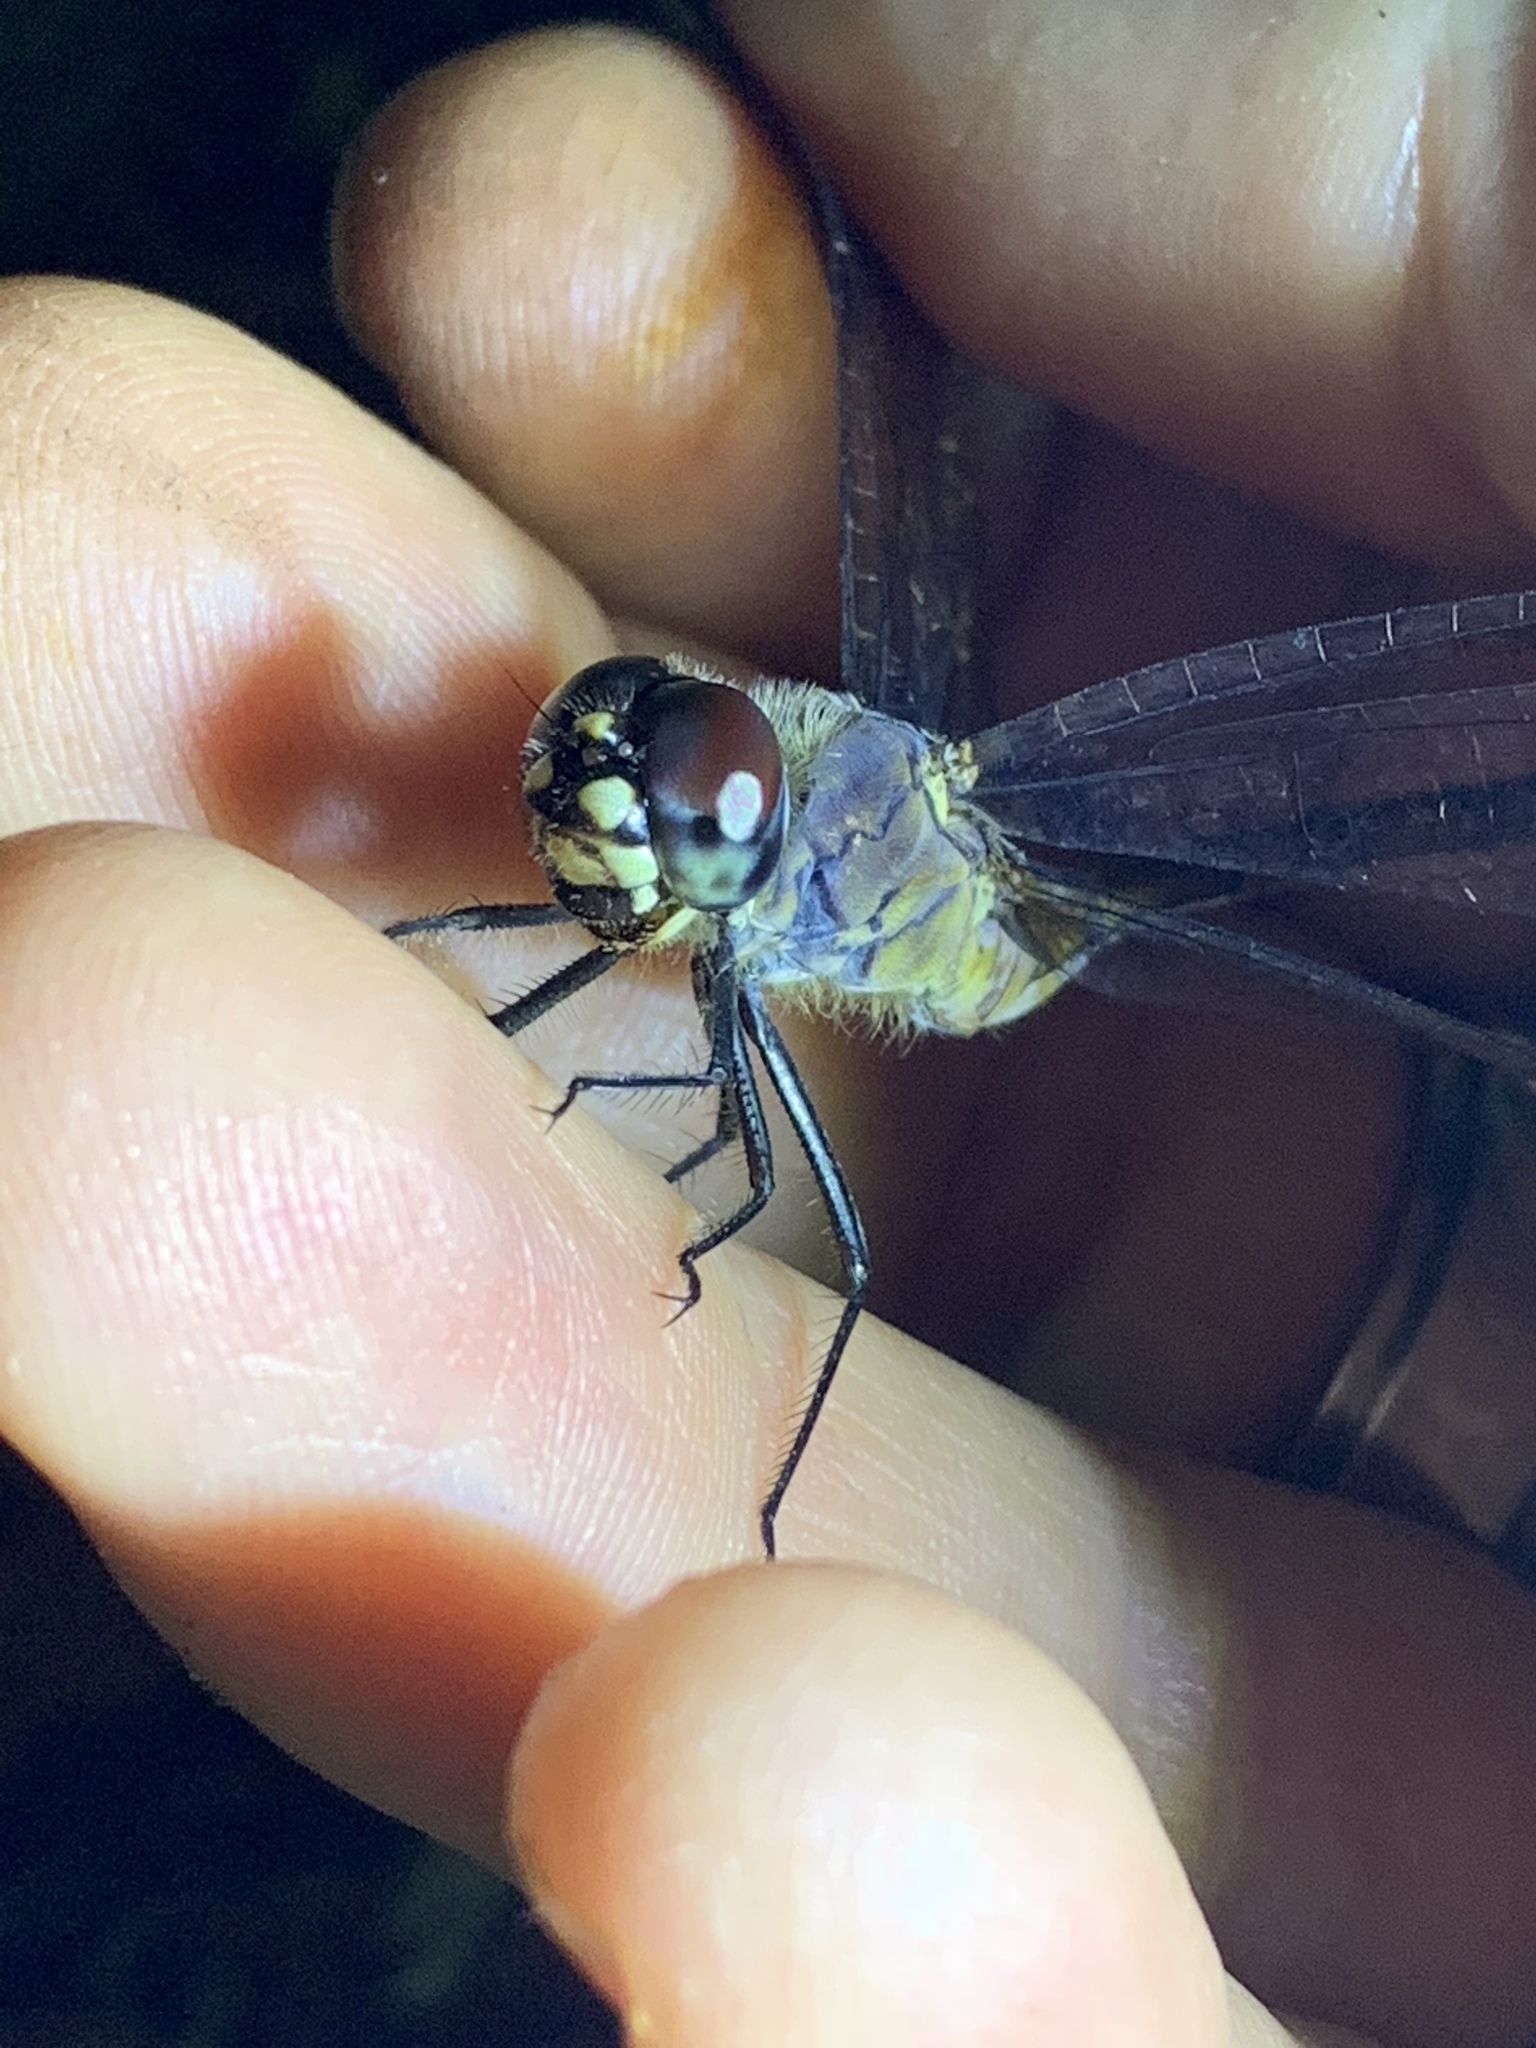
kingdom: Animalia
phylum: Arthropoda
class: Insecta
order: Odonata
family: Libellulidae
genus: Brachymesia
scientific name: Brachymesia gravida
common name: Four-spotted pennant
